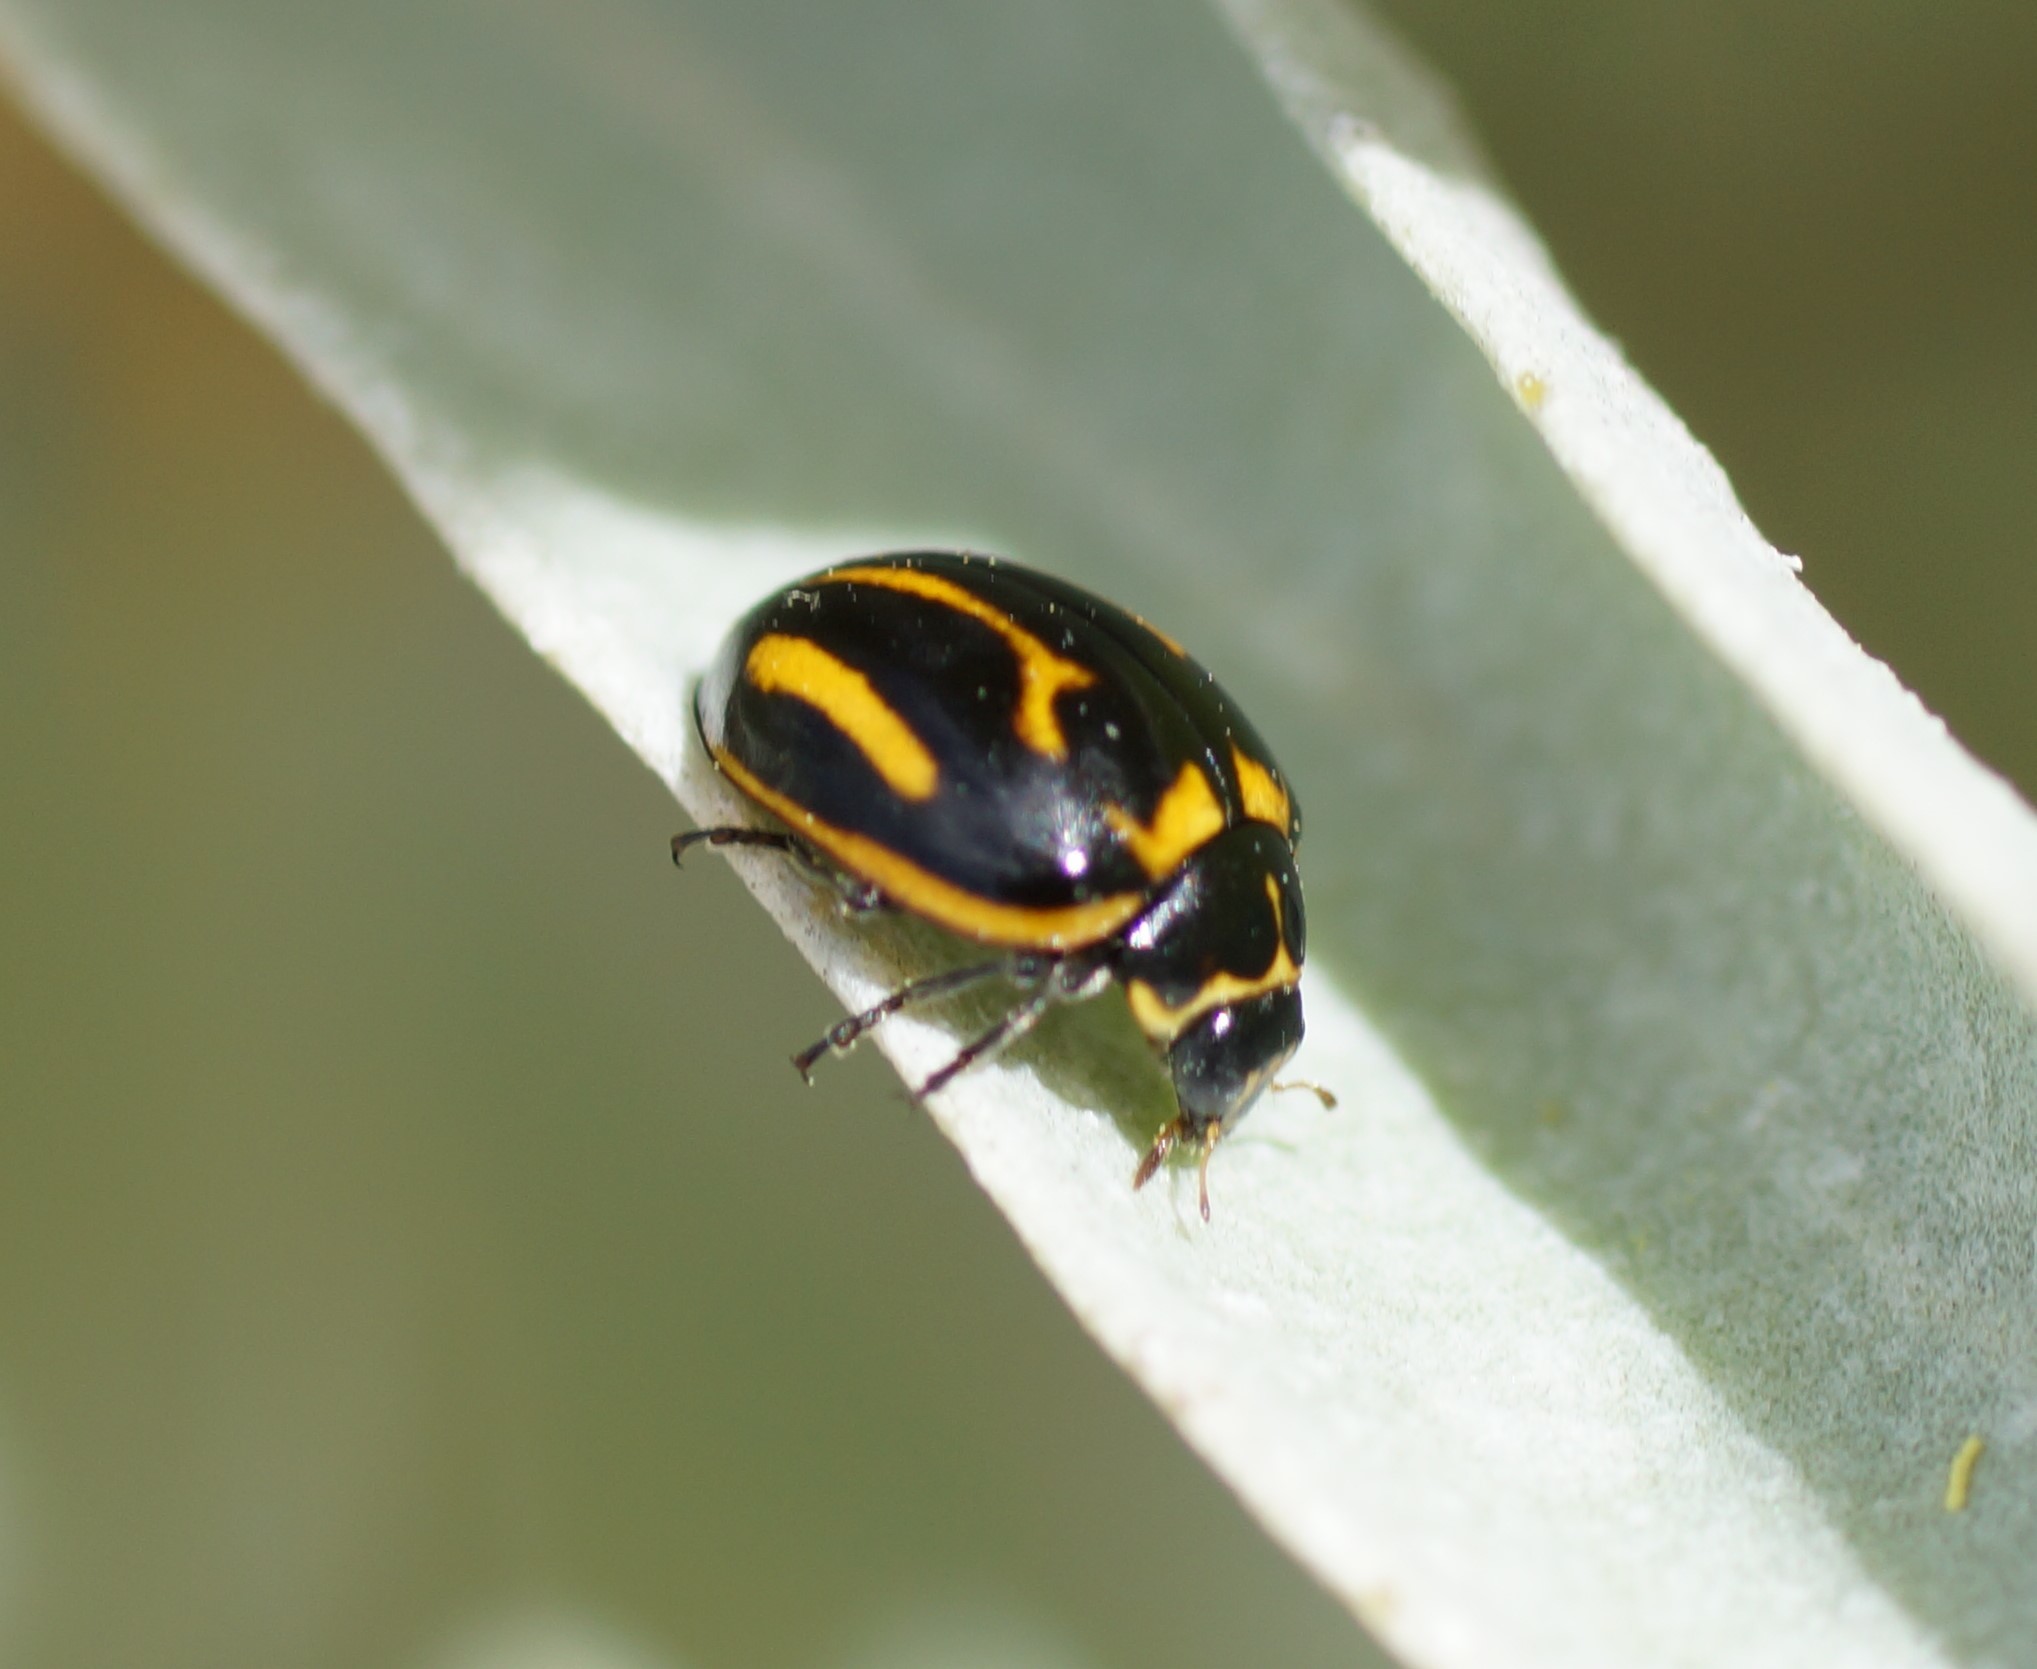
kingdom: Animalia
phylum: Arthropoda
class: Insecta
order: Coleoptera
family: Coccinellidae
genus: Micraspis
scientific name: Micraspis
